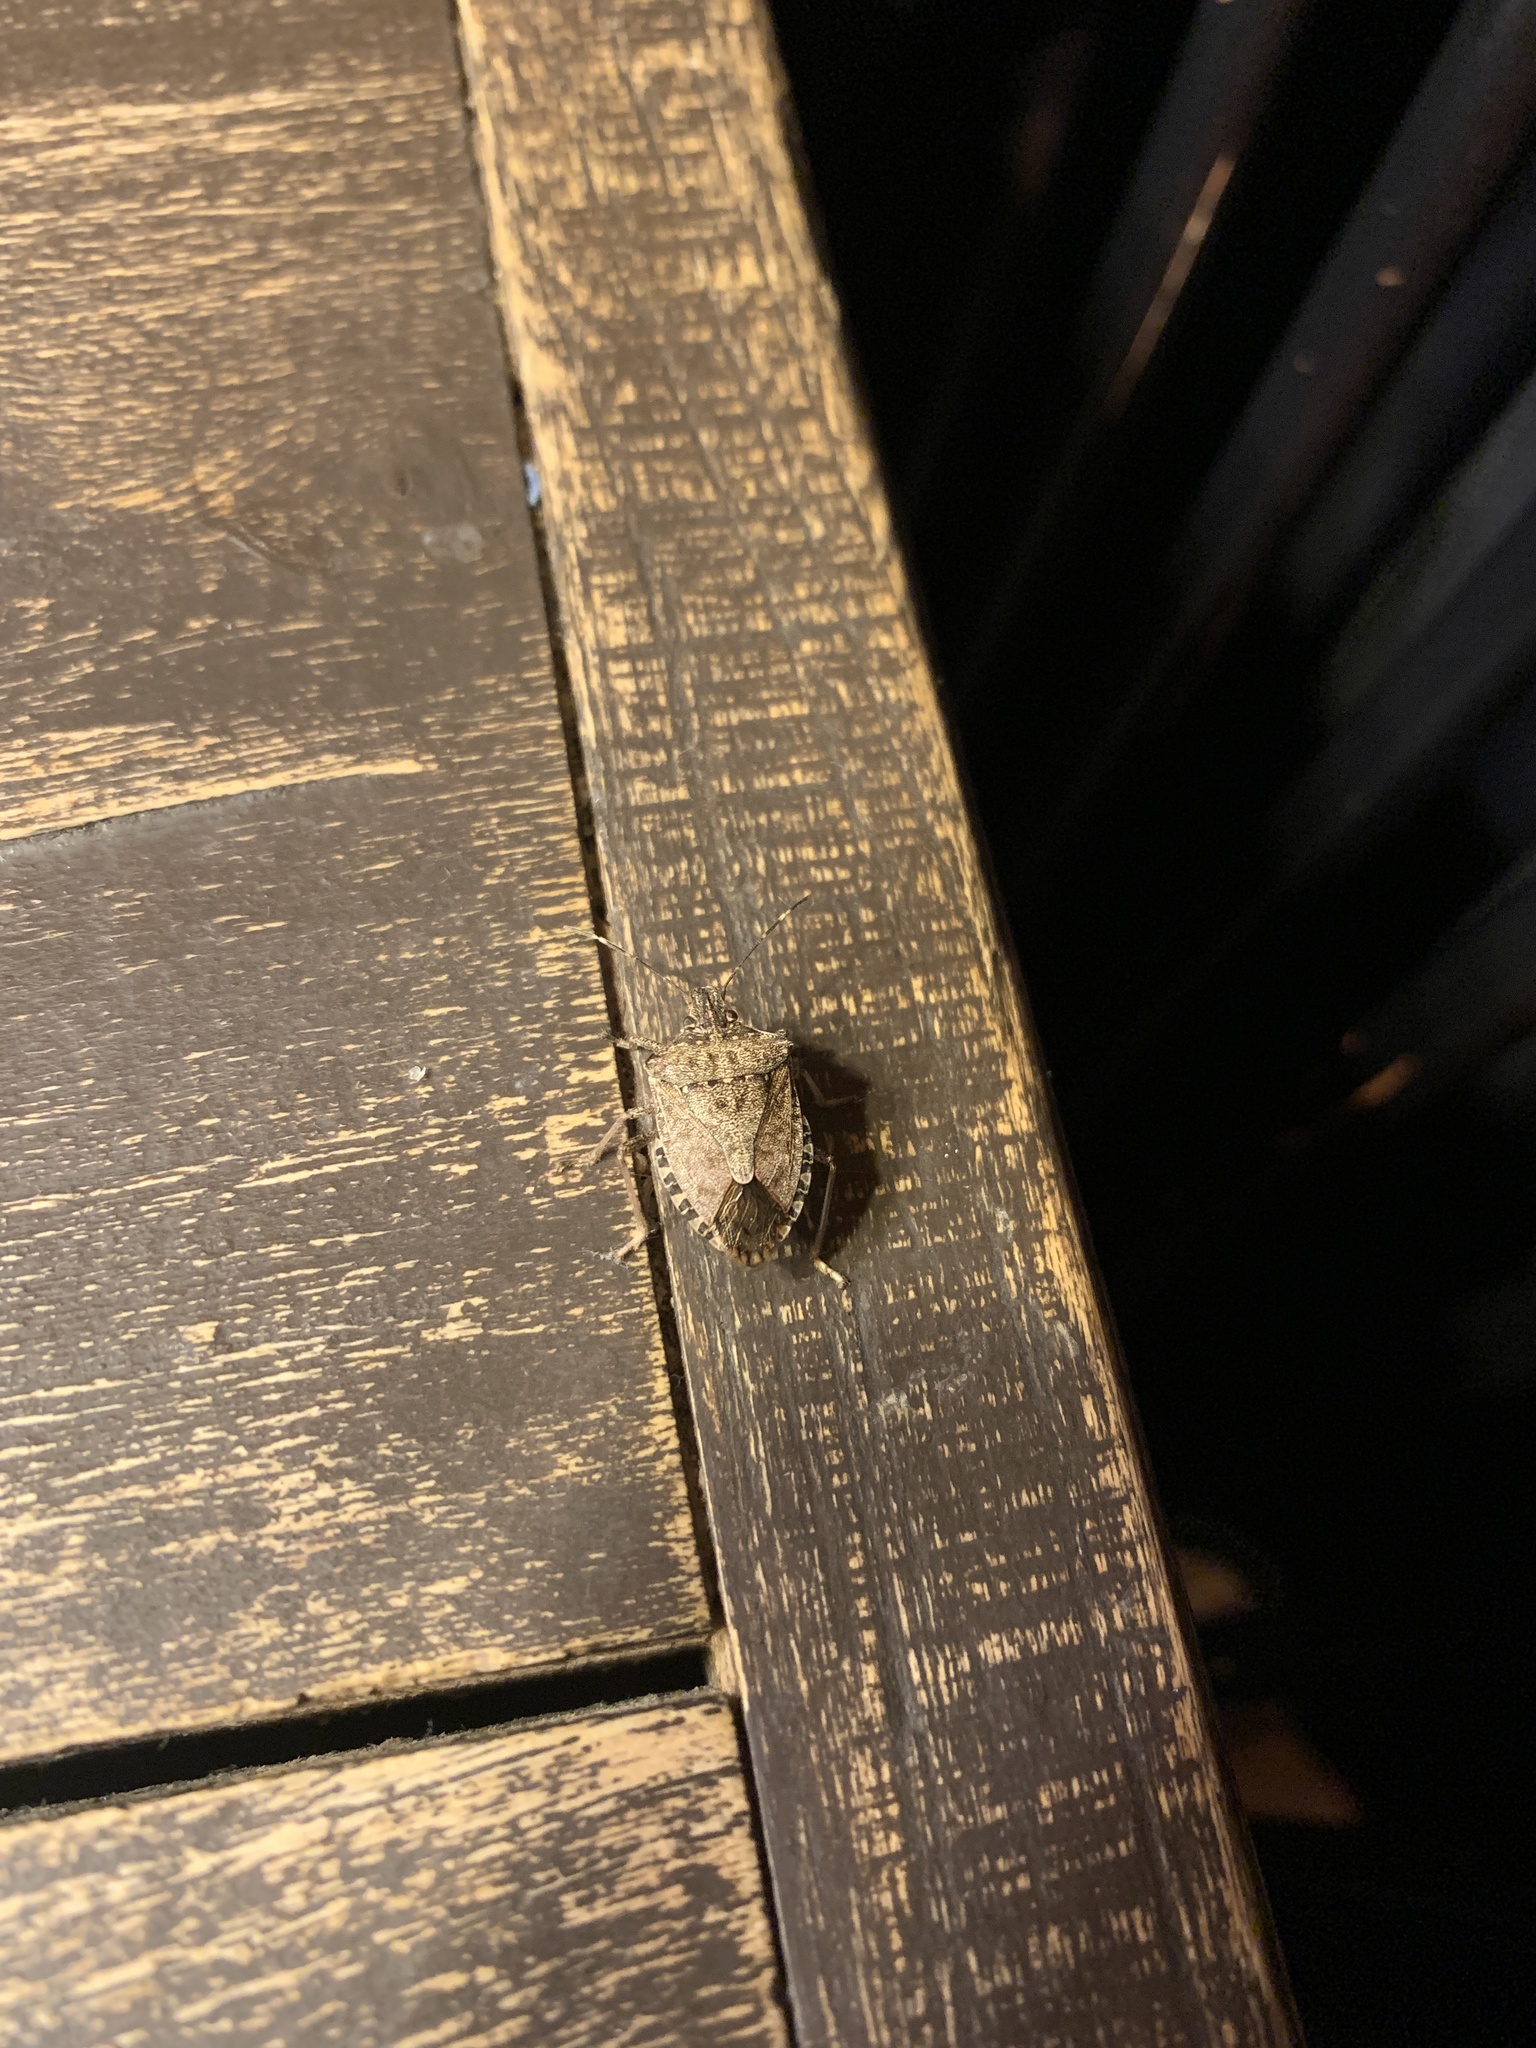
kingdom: Animalia
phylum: Arthropoda
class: Insecta
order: Hemiptera
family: Pentatomidae
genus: Halyomorpha
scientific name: Halyomorpha halys
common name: Brown marmorated stink bug
